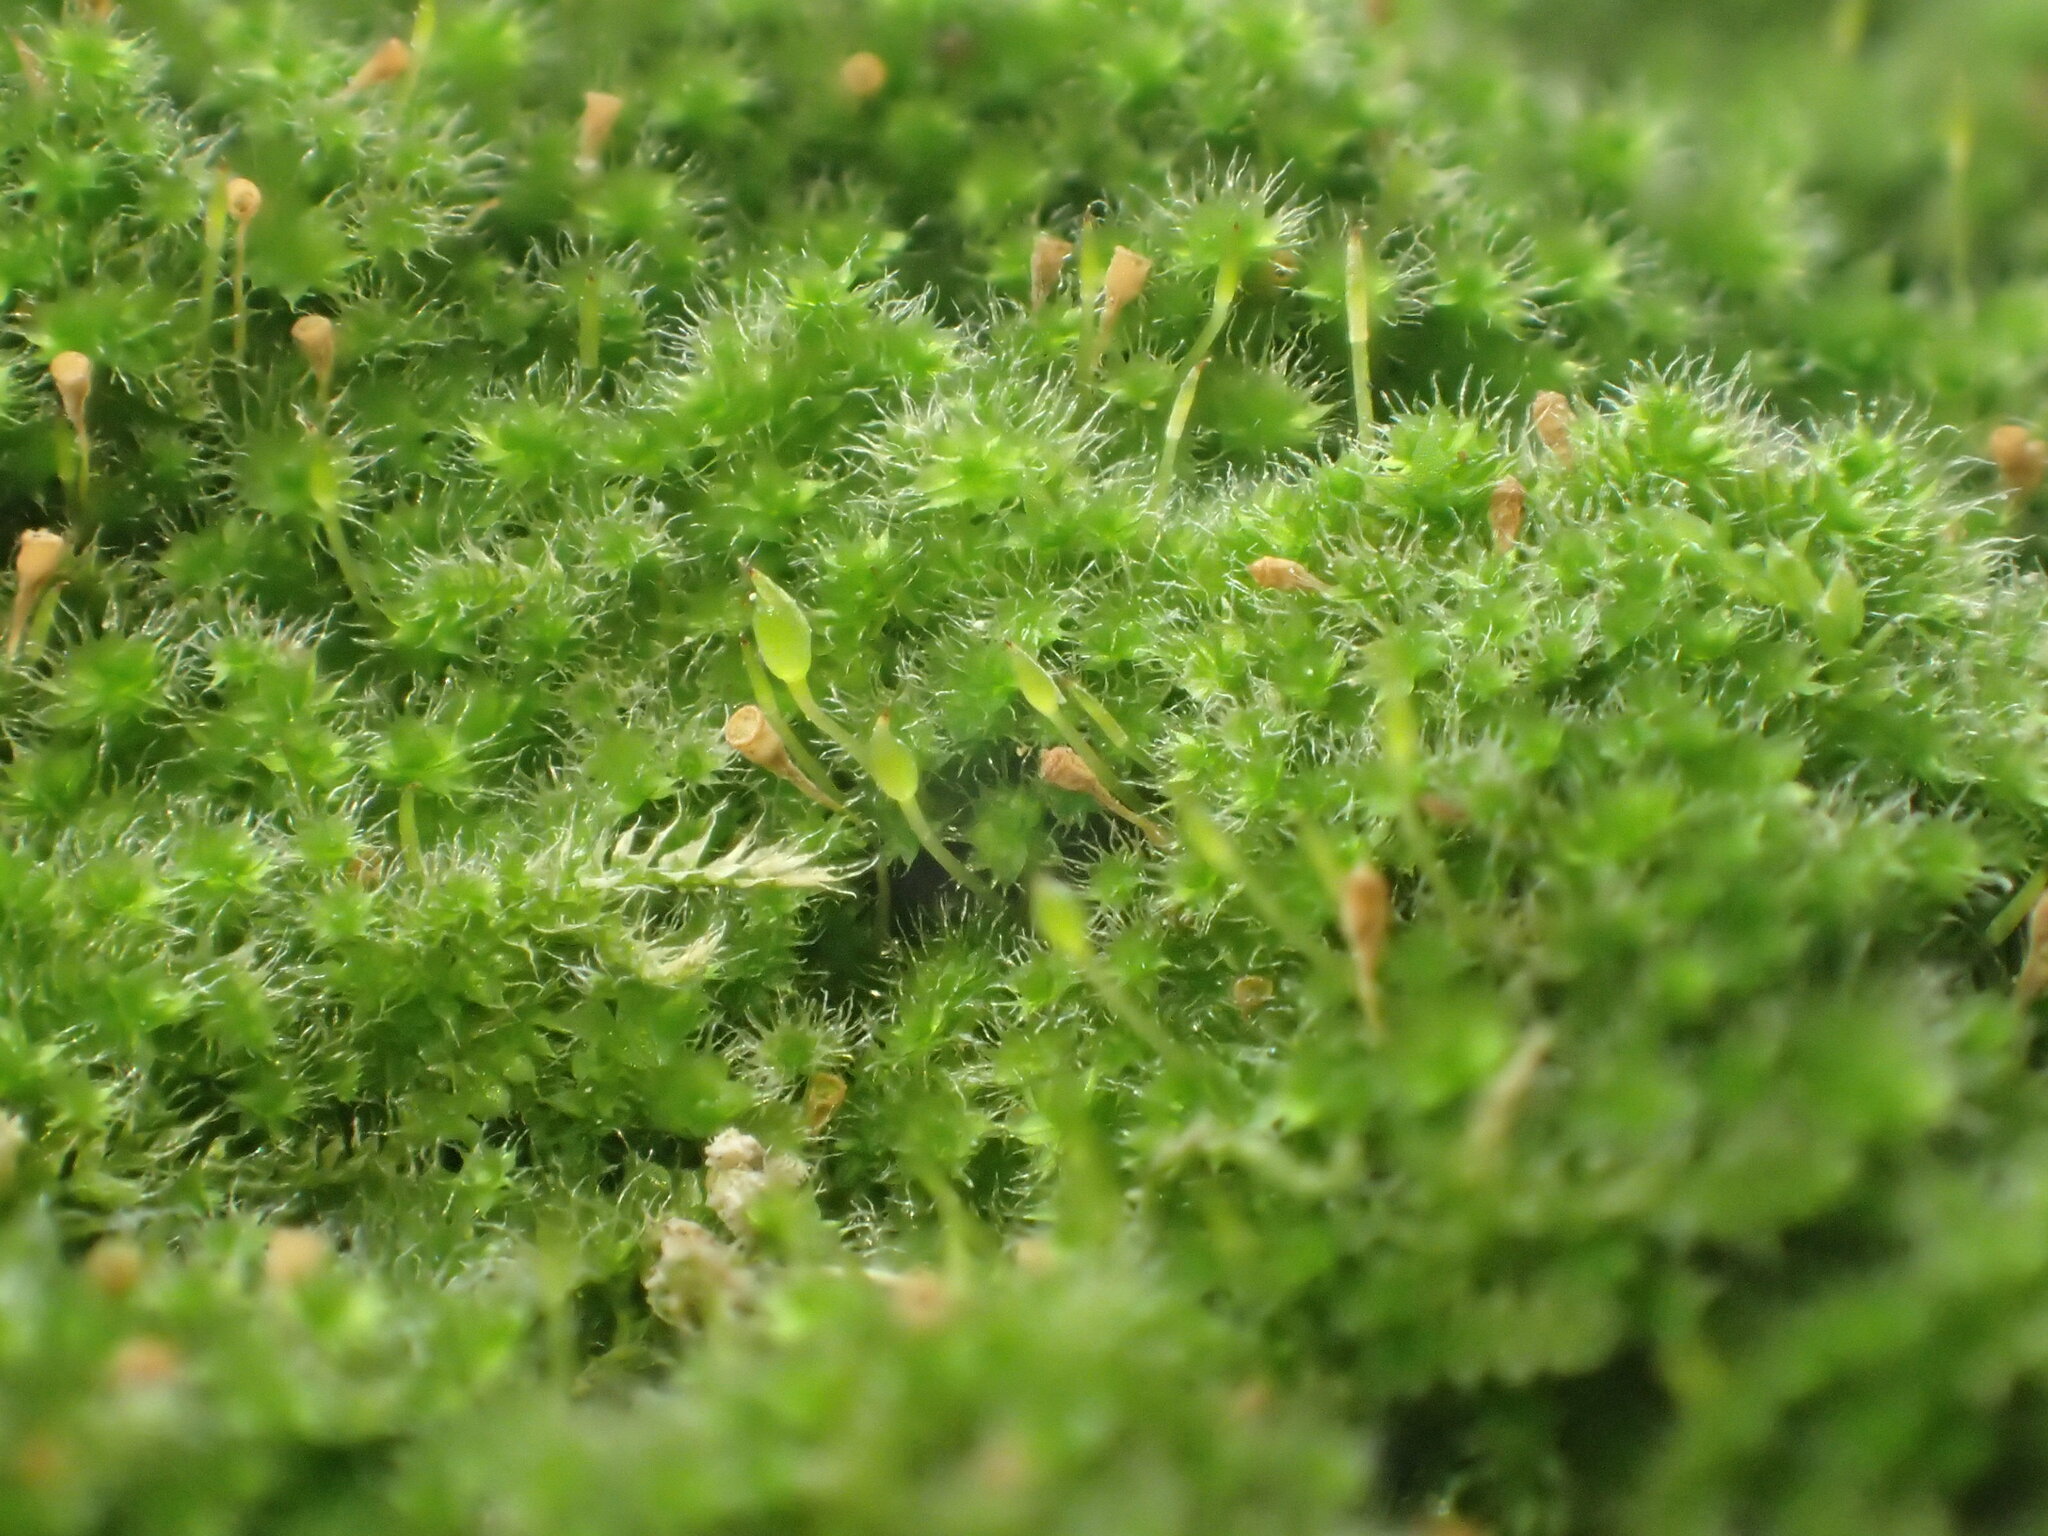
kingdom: Plantae
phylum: Bryophyta
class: Bryopsida
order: Hypnales
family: Fabroniaceae
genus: Fabronia
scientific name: Fabronia matsumurae
